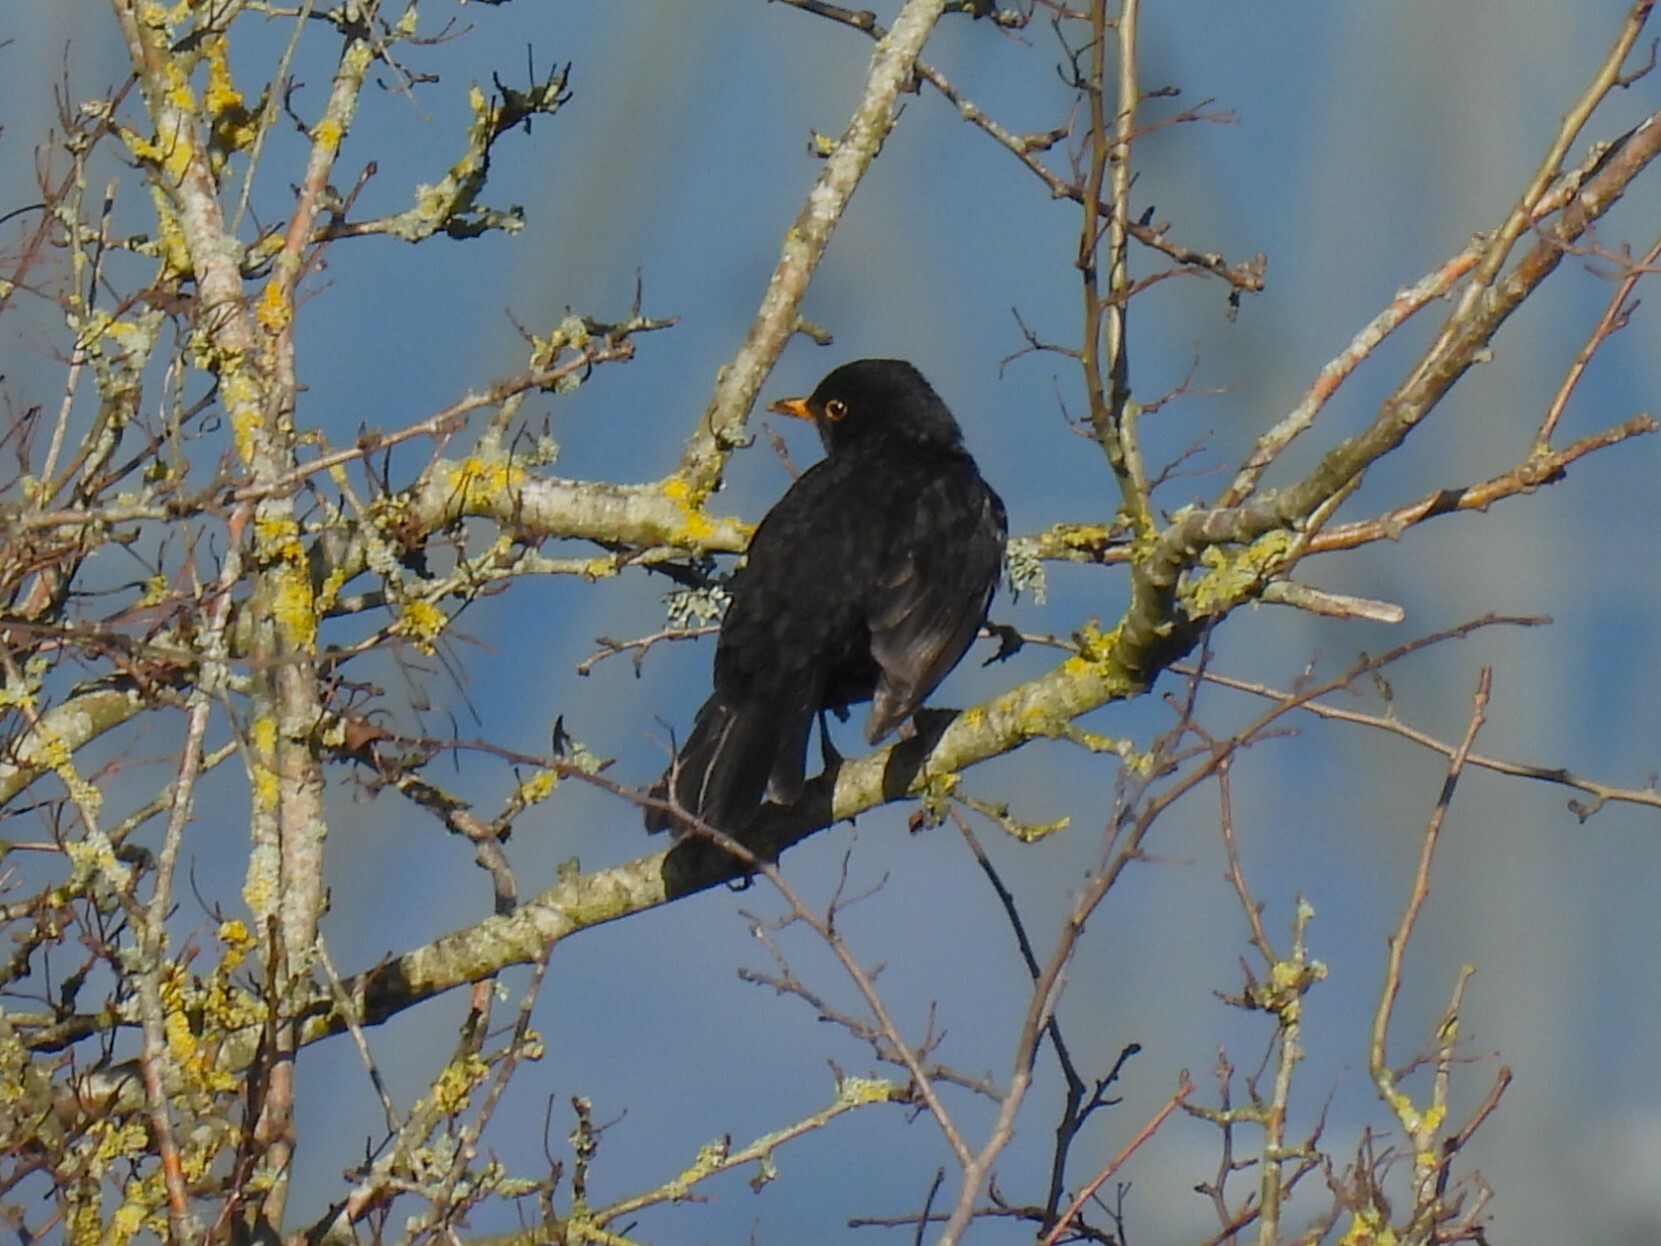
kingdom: Animalia
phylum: Chordata
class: Aves
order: Passeriformes
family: Turdidae
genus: Turdus
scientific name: Turdus merula
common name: Common blackbird
